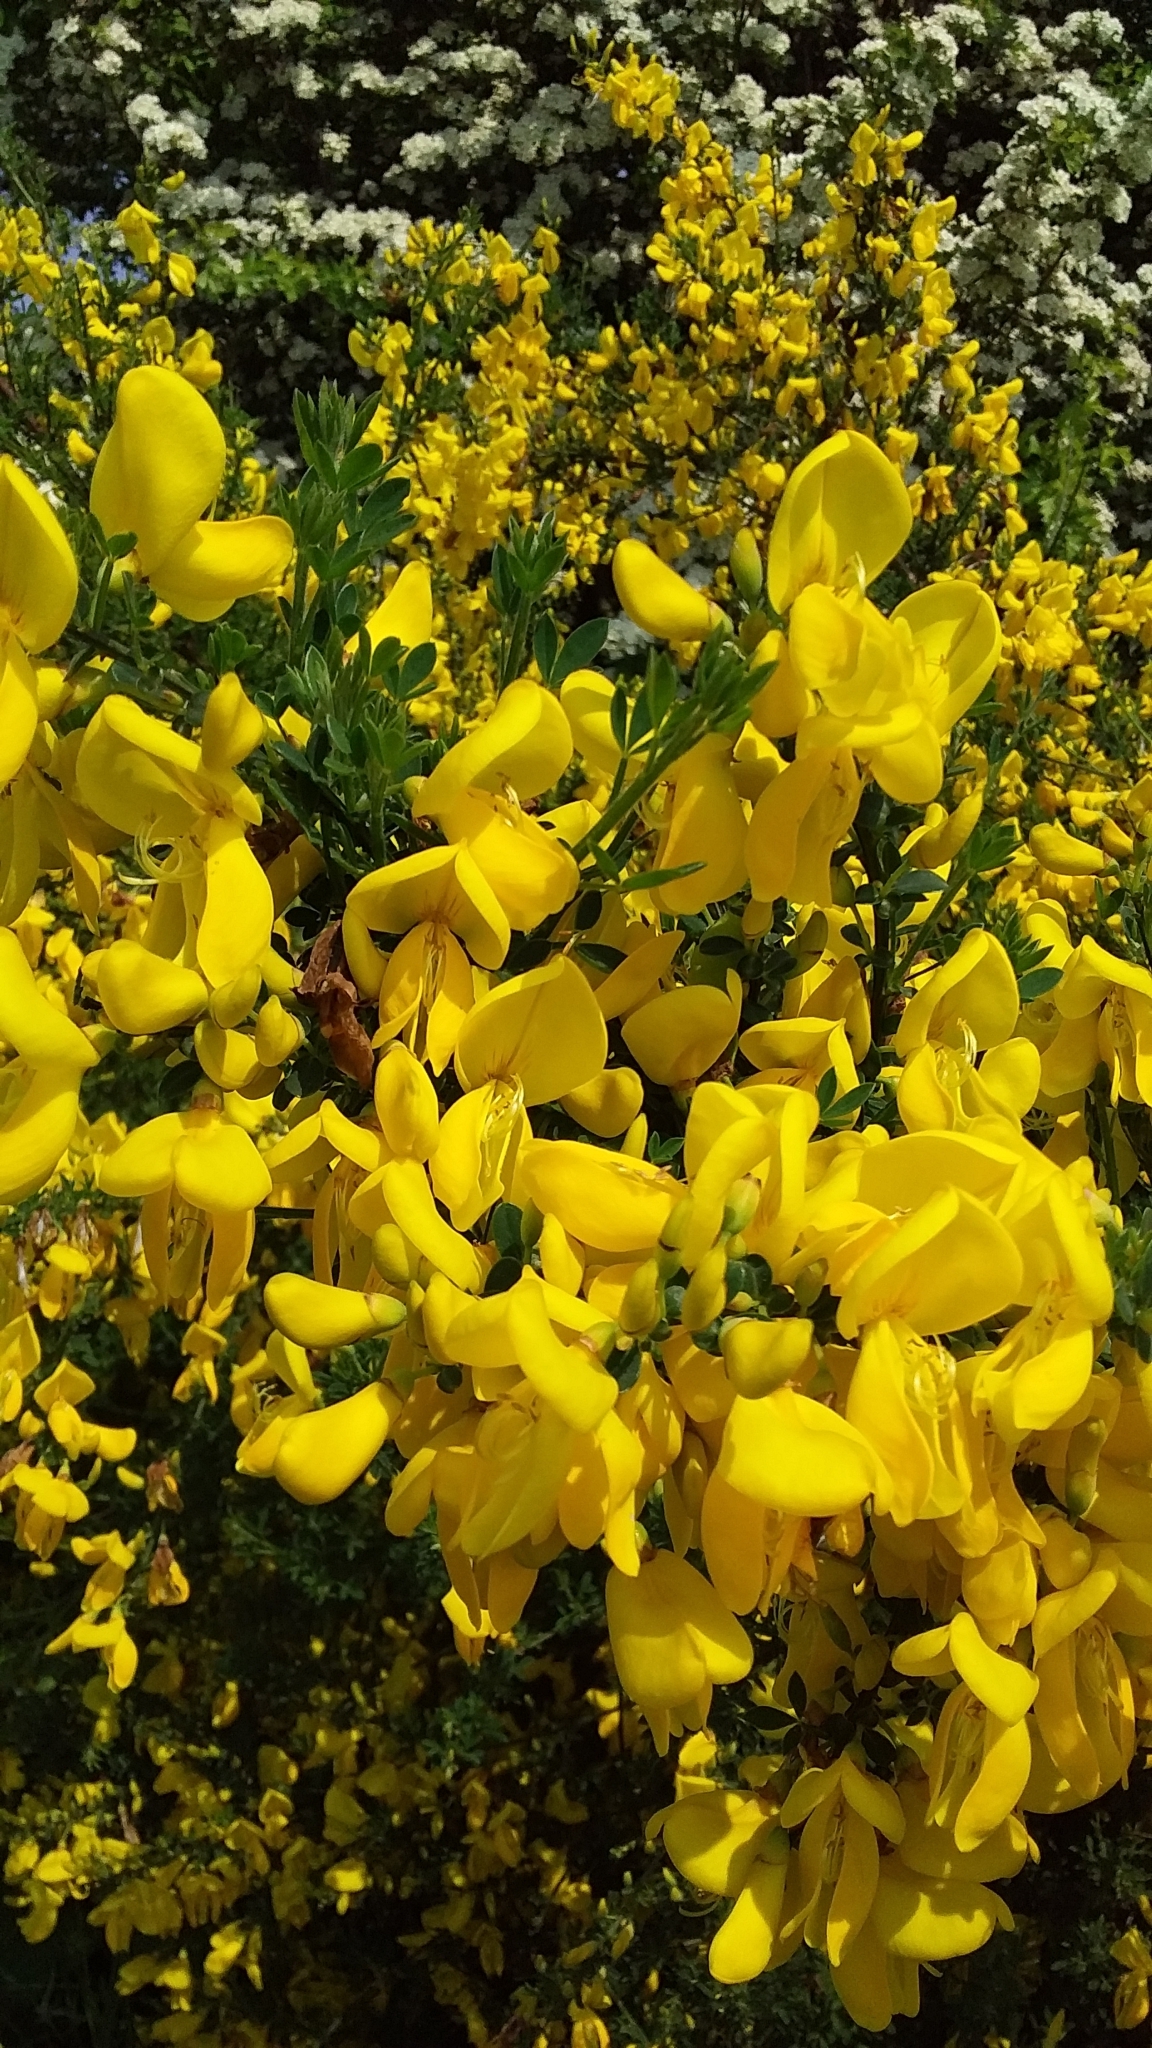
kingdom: Plantae
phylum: Tracheophyta
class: Magnoliopsida
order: Fabales
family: Fabaceae
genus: Cytisus
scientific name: Cytisus scoparius
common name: Scotch broom
